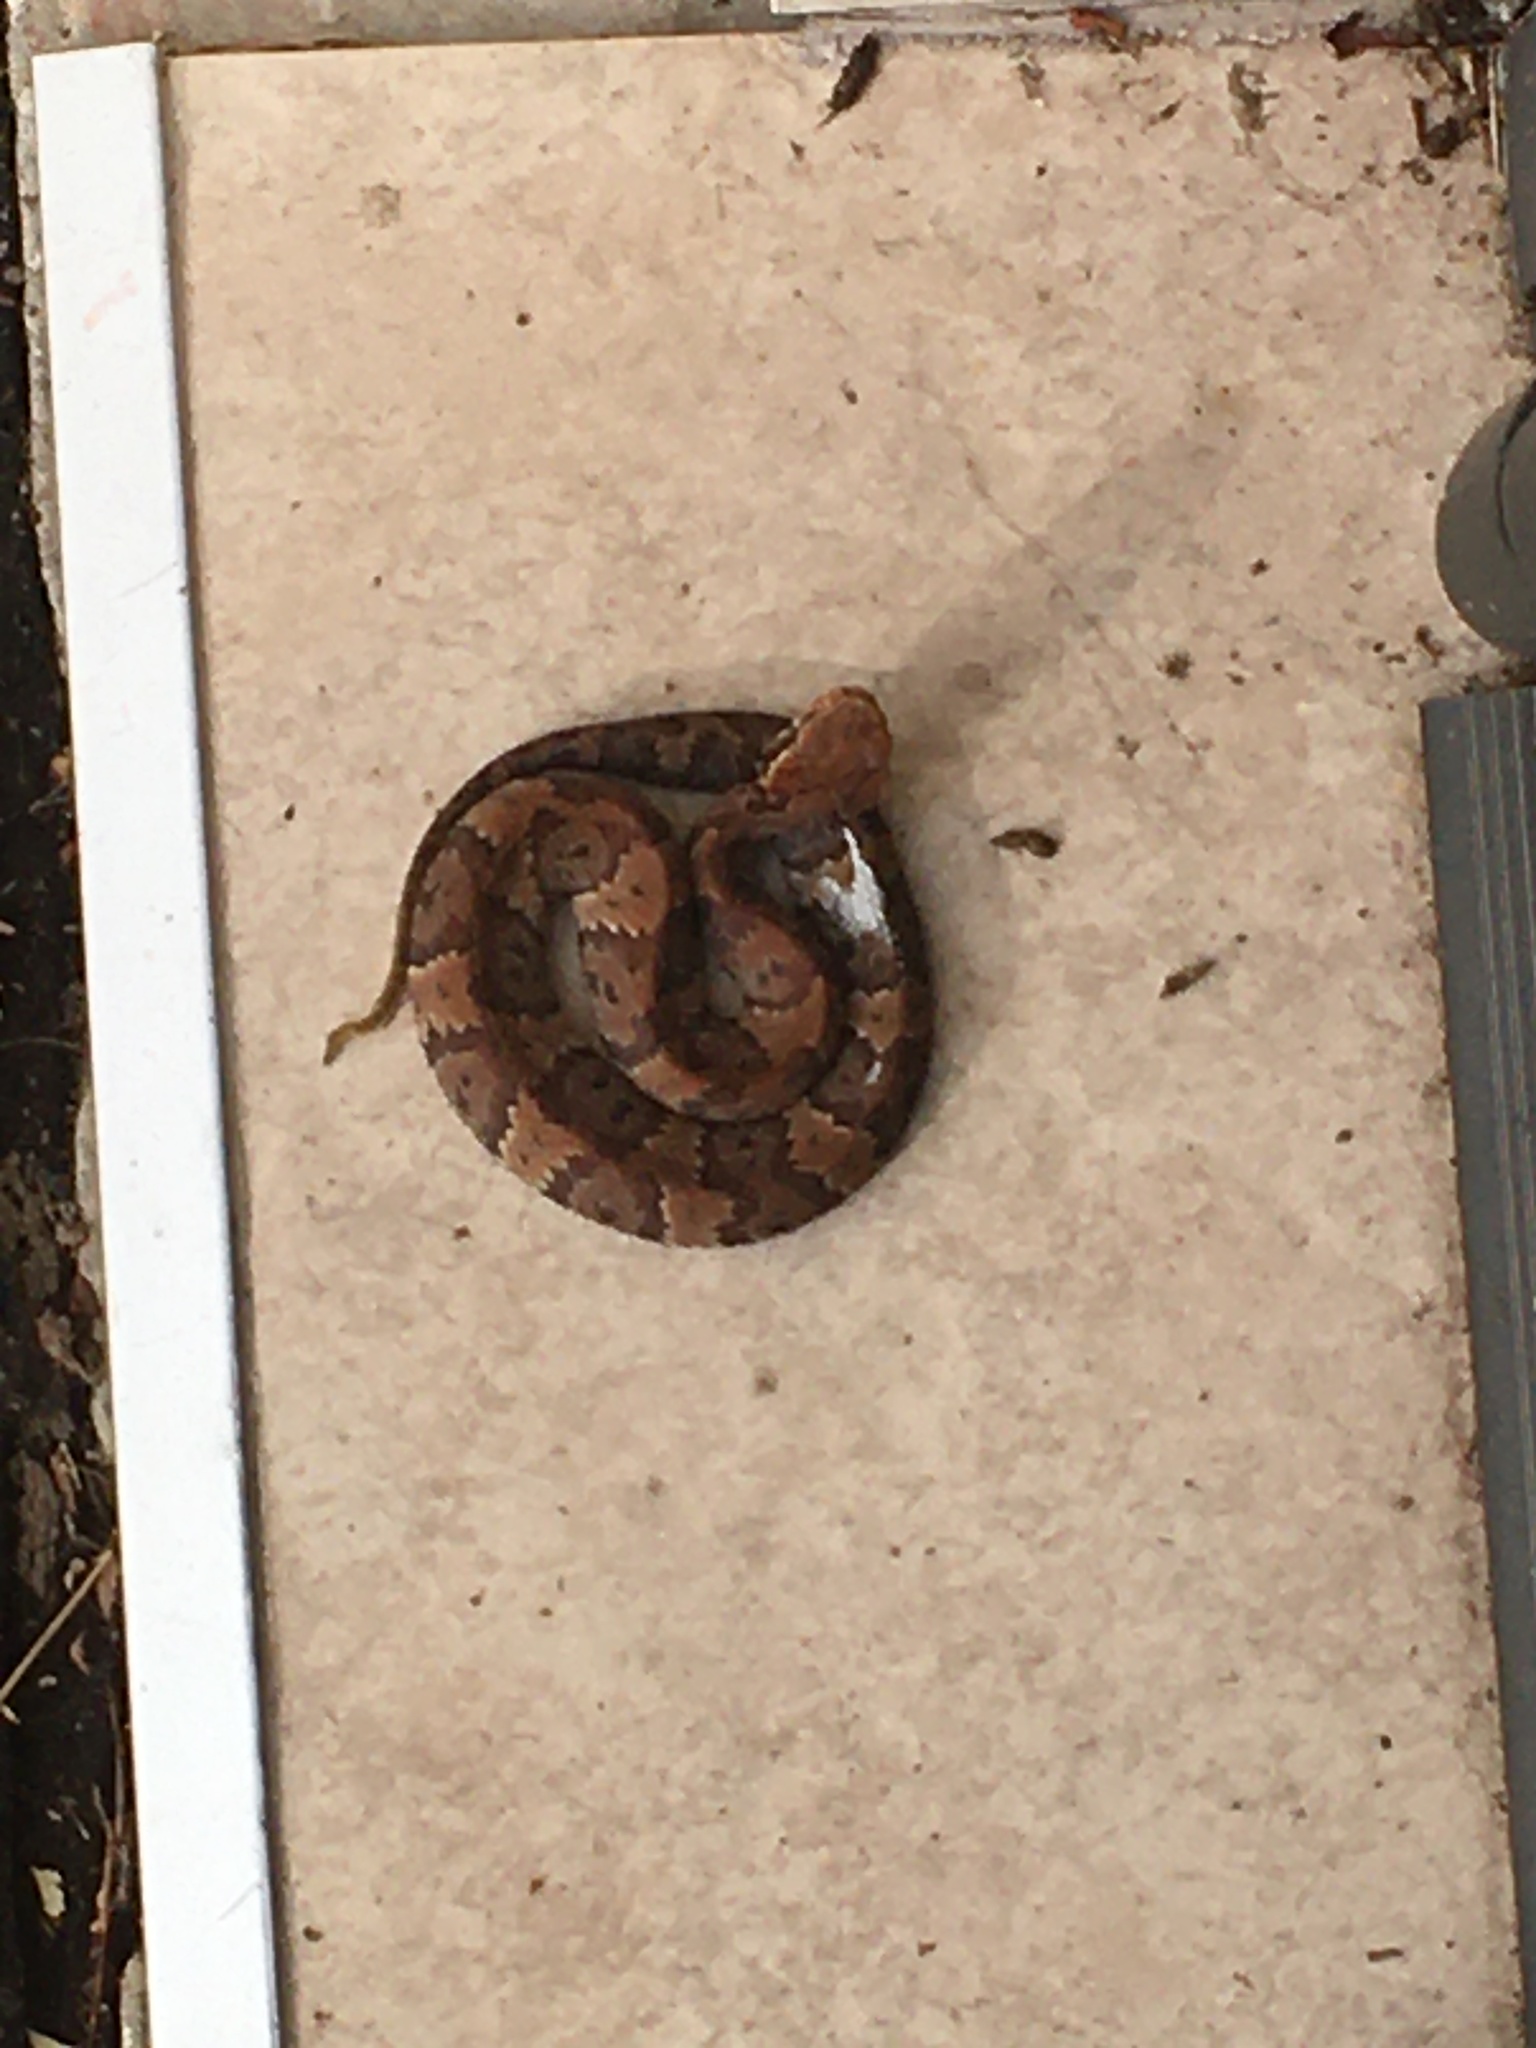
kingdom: Animalia
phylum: Chordata
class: Squamata
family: Viperidae
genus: Agkistrodon
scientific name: Agkistrodon conanti
